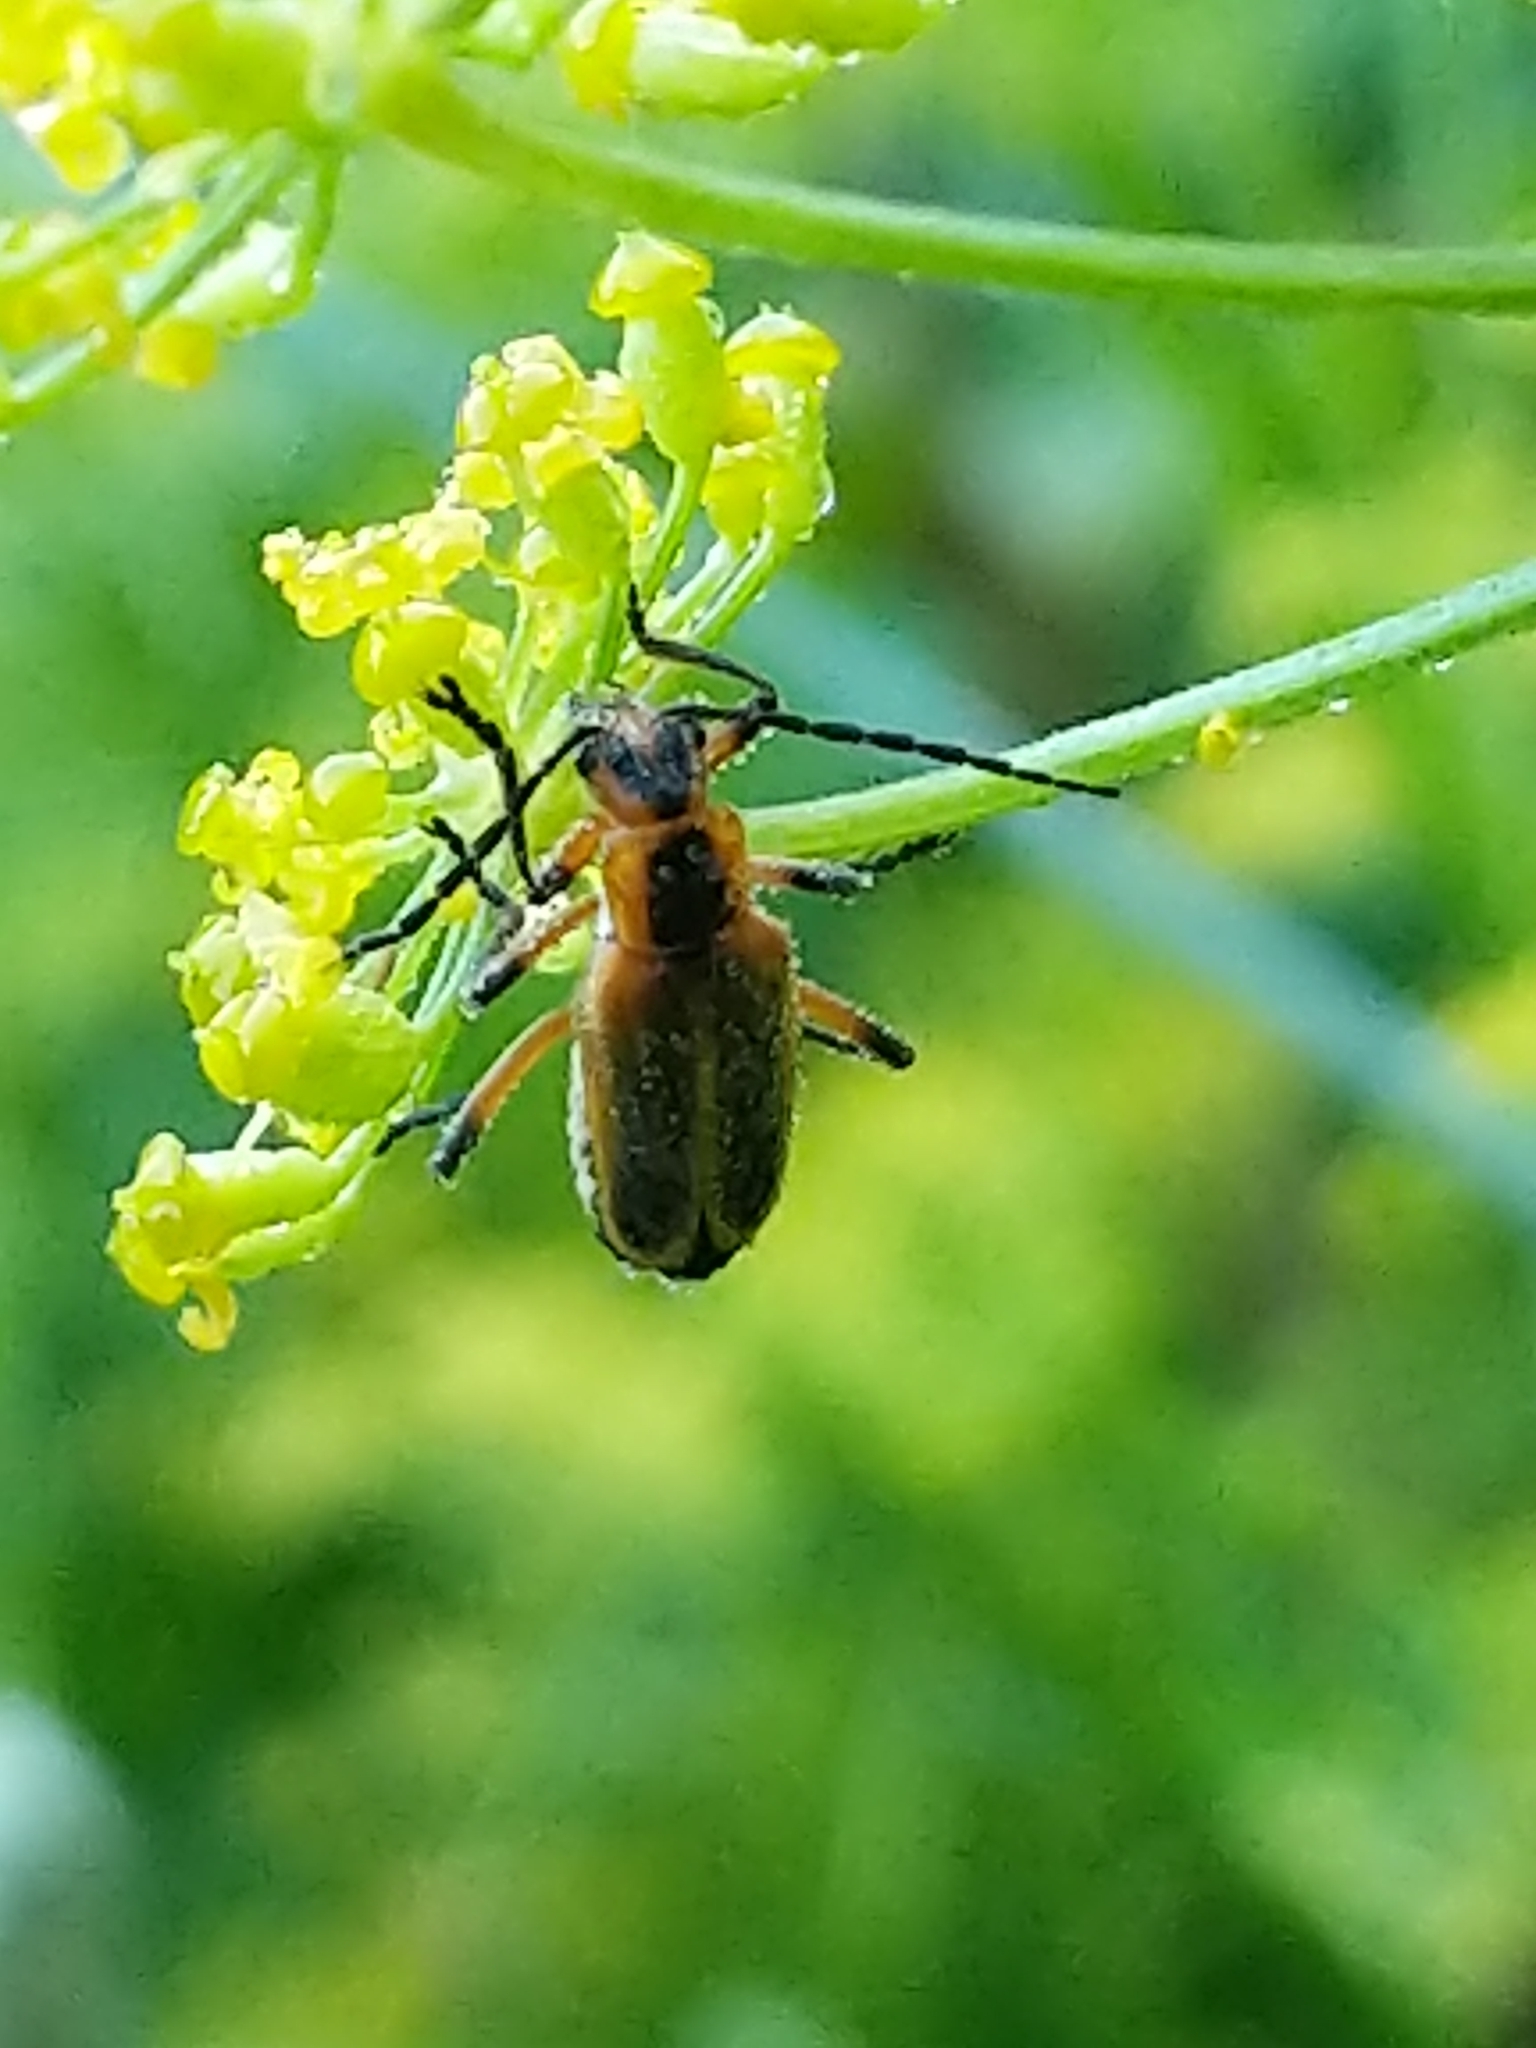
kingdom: Animalia
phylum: Arthropoda
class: Insecta
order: Coleoptera
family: Cantharidae
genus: Chauliognathus
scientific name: Chauliognathus marginatus
